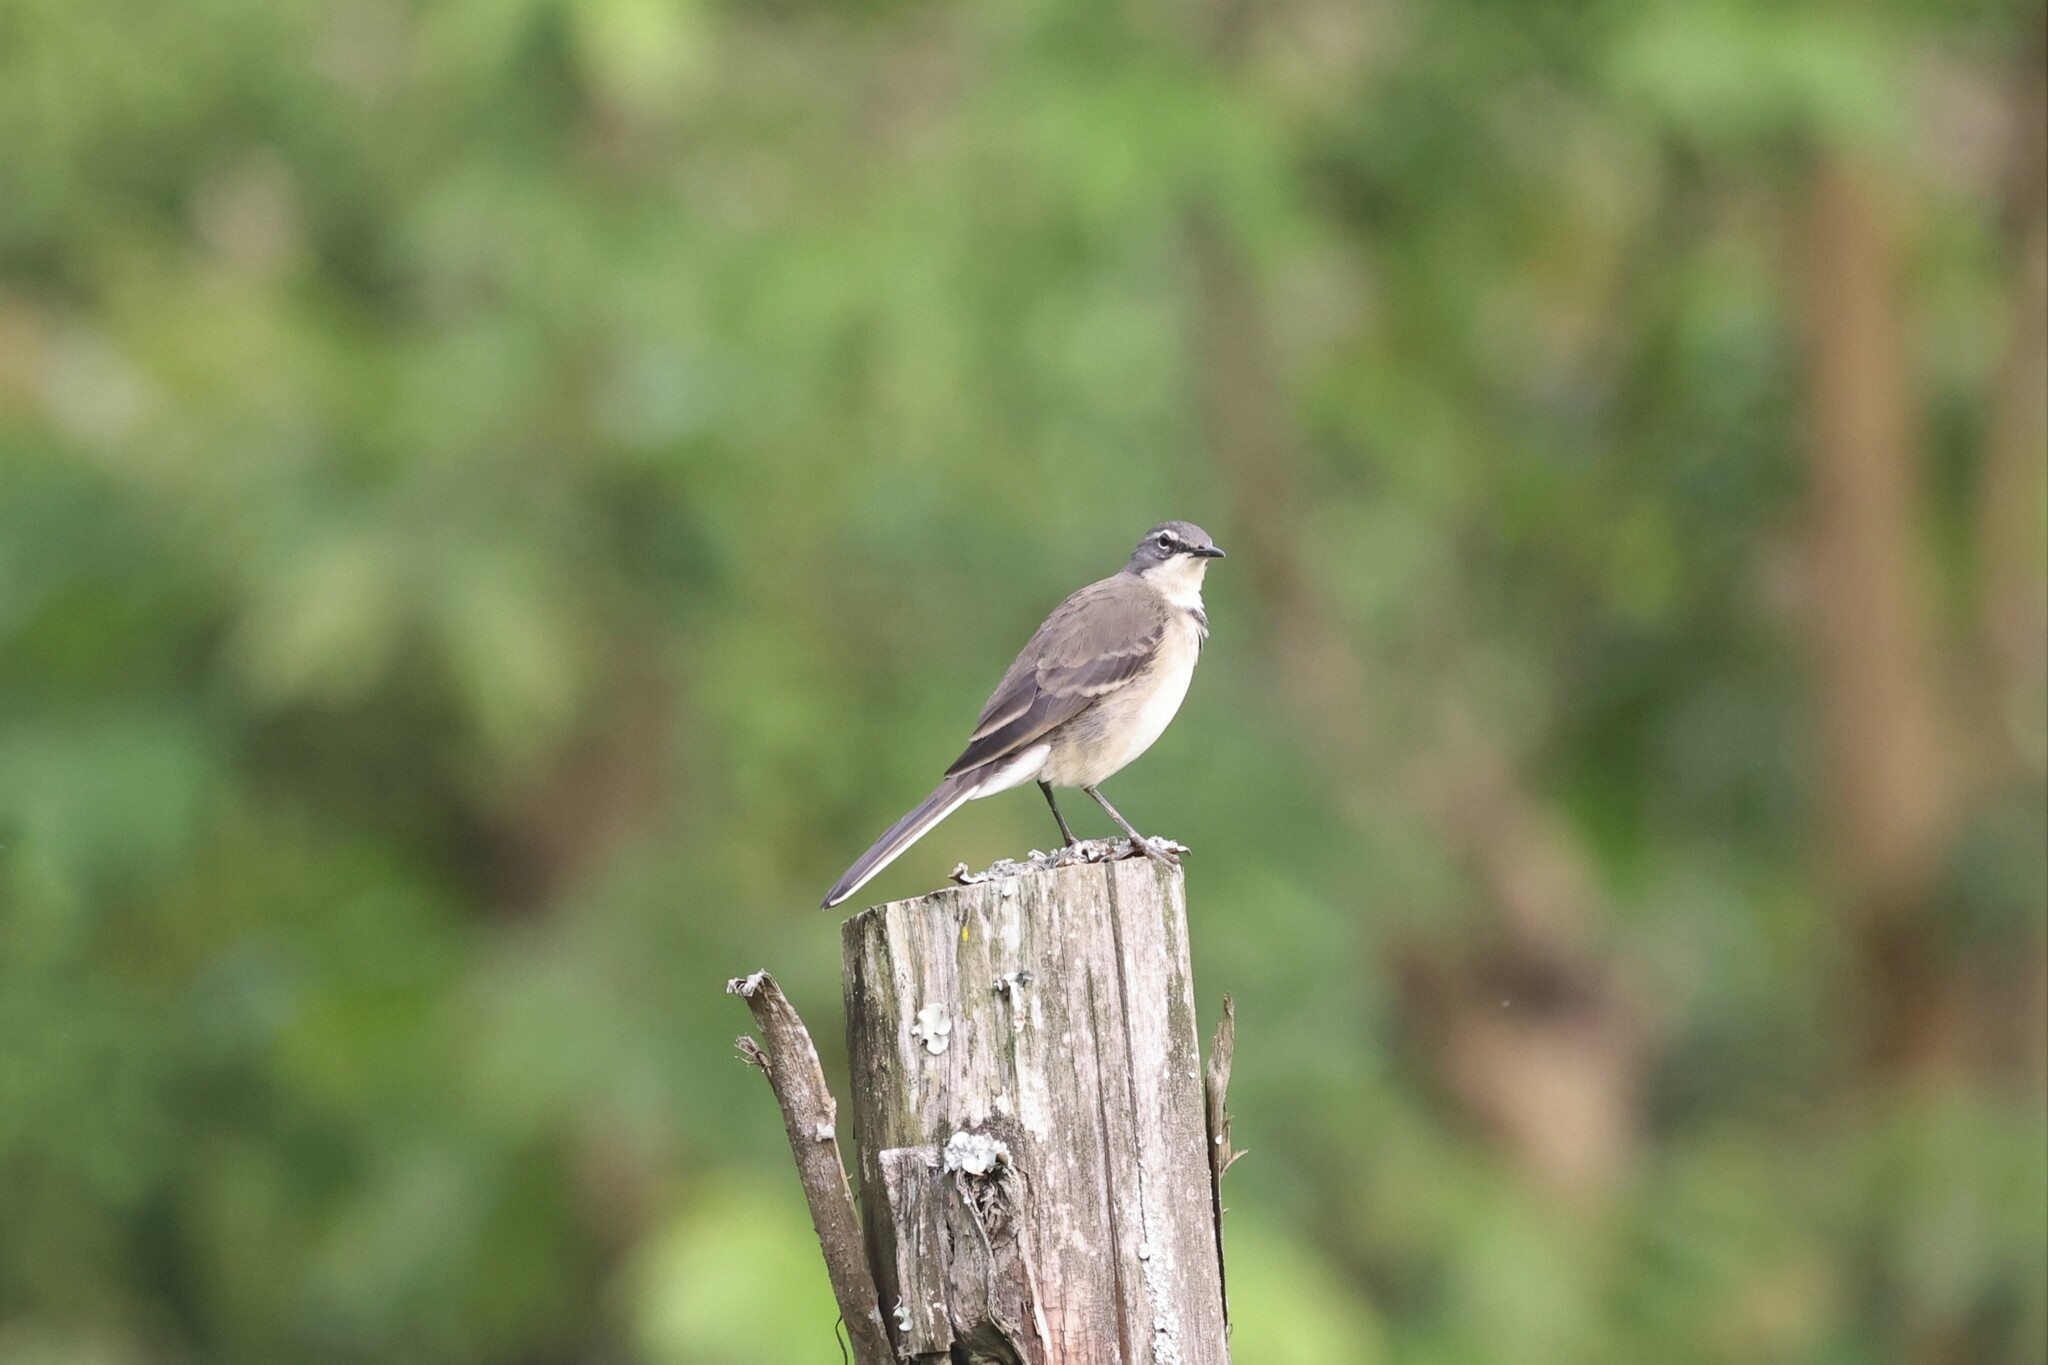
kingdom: Animalia
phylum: Chordata
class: Aves
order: Passeriformes
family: Motacillidae
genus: Motacilla
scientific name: Motacilla capensis
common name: Cape wagtail
